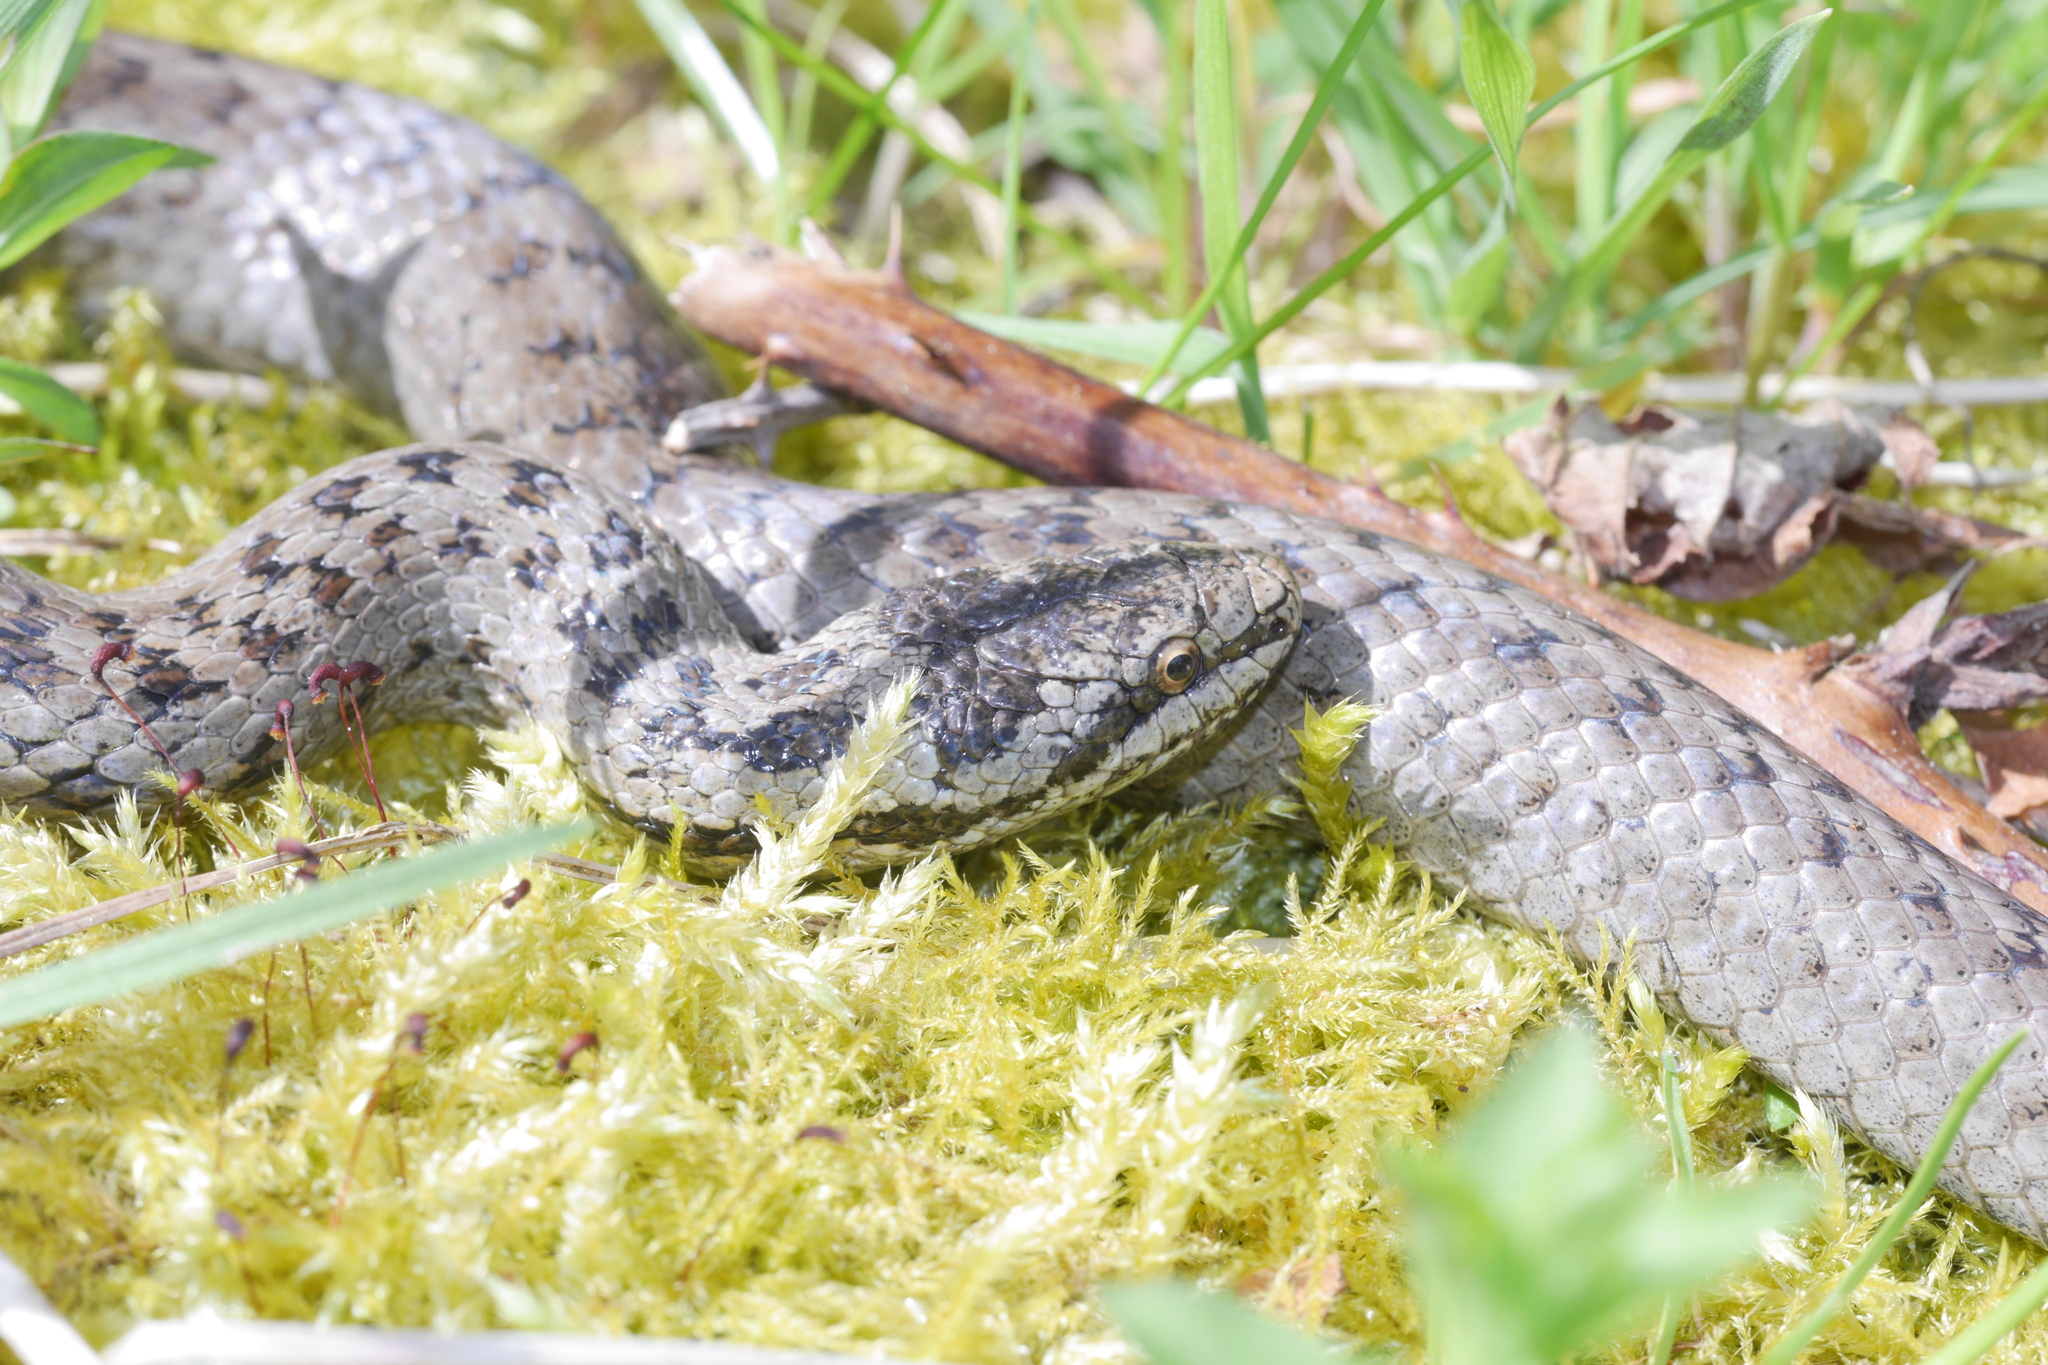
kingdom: Animalia
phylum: Chordata
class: Squamata
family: Colubridae
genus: Coronella
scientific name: Coronella austriaca
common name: Smooth snake
